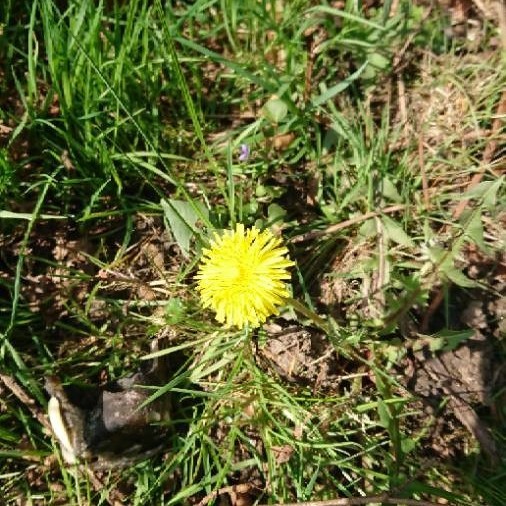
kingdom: Plantae
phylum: Tracheophyta
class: Magnoliopsida
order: Asterales
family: Asteraceae
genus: Taraxacum
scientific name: Taraxacum officinale
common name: Common dandelion
